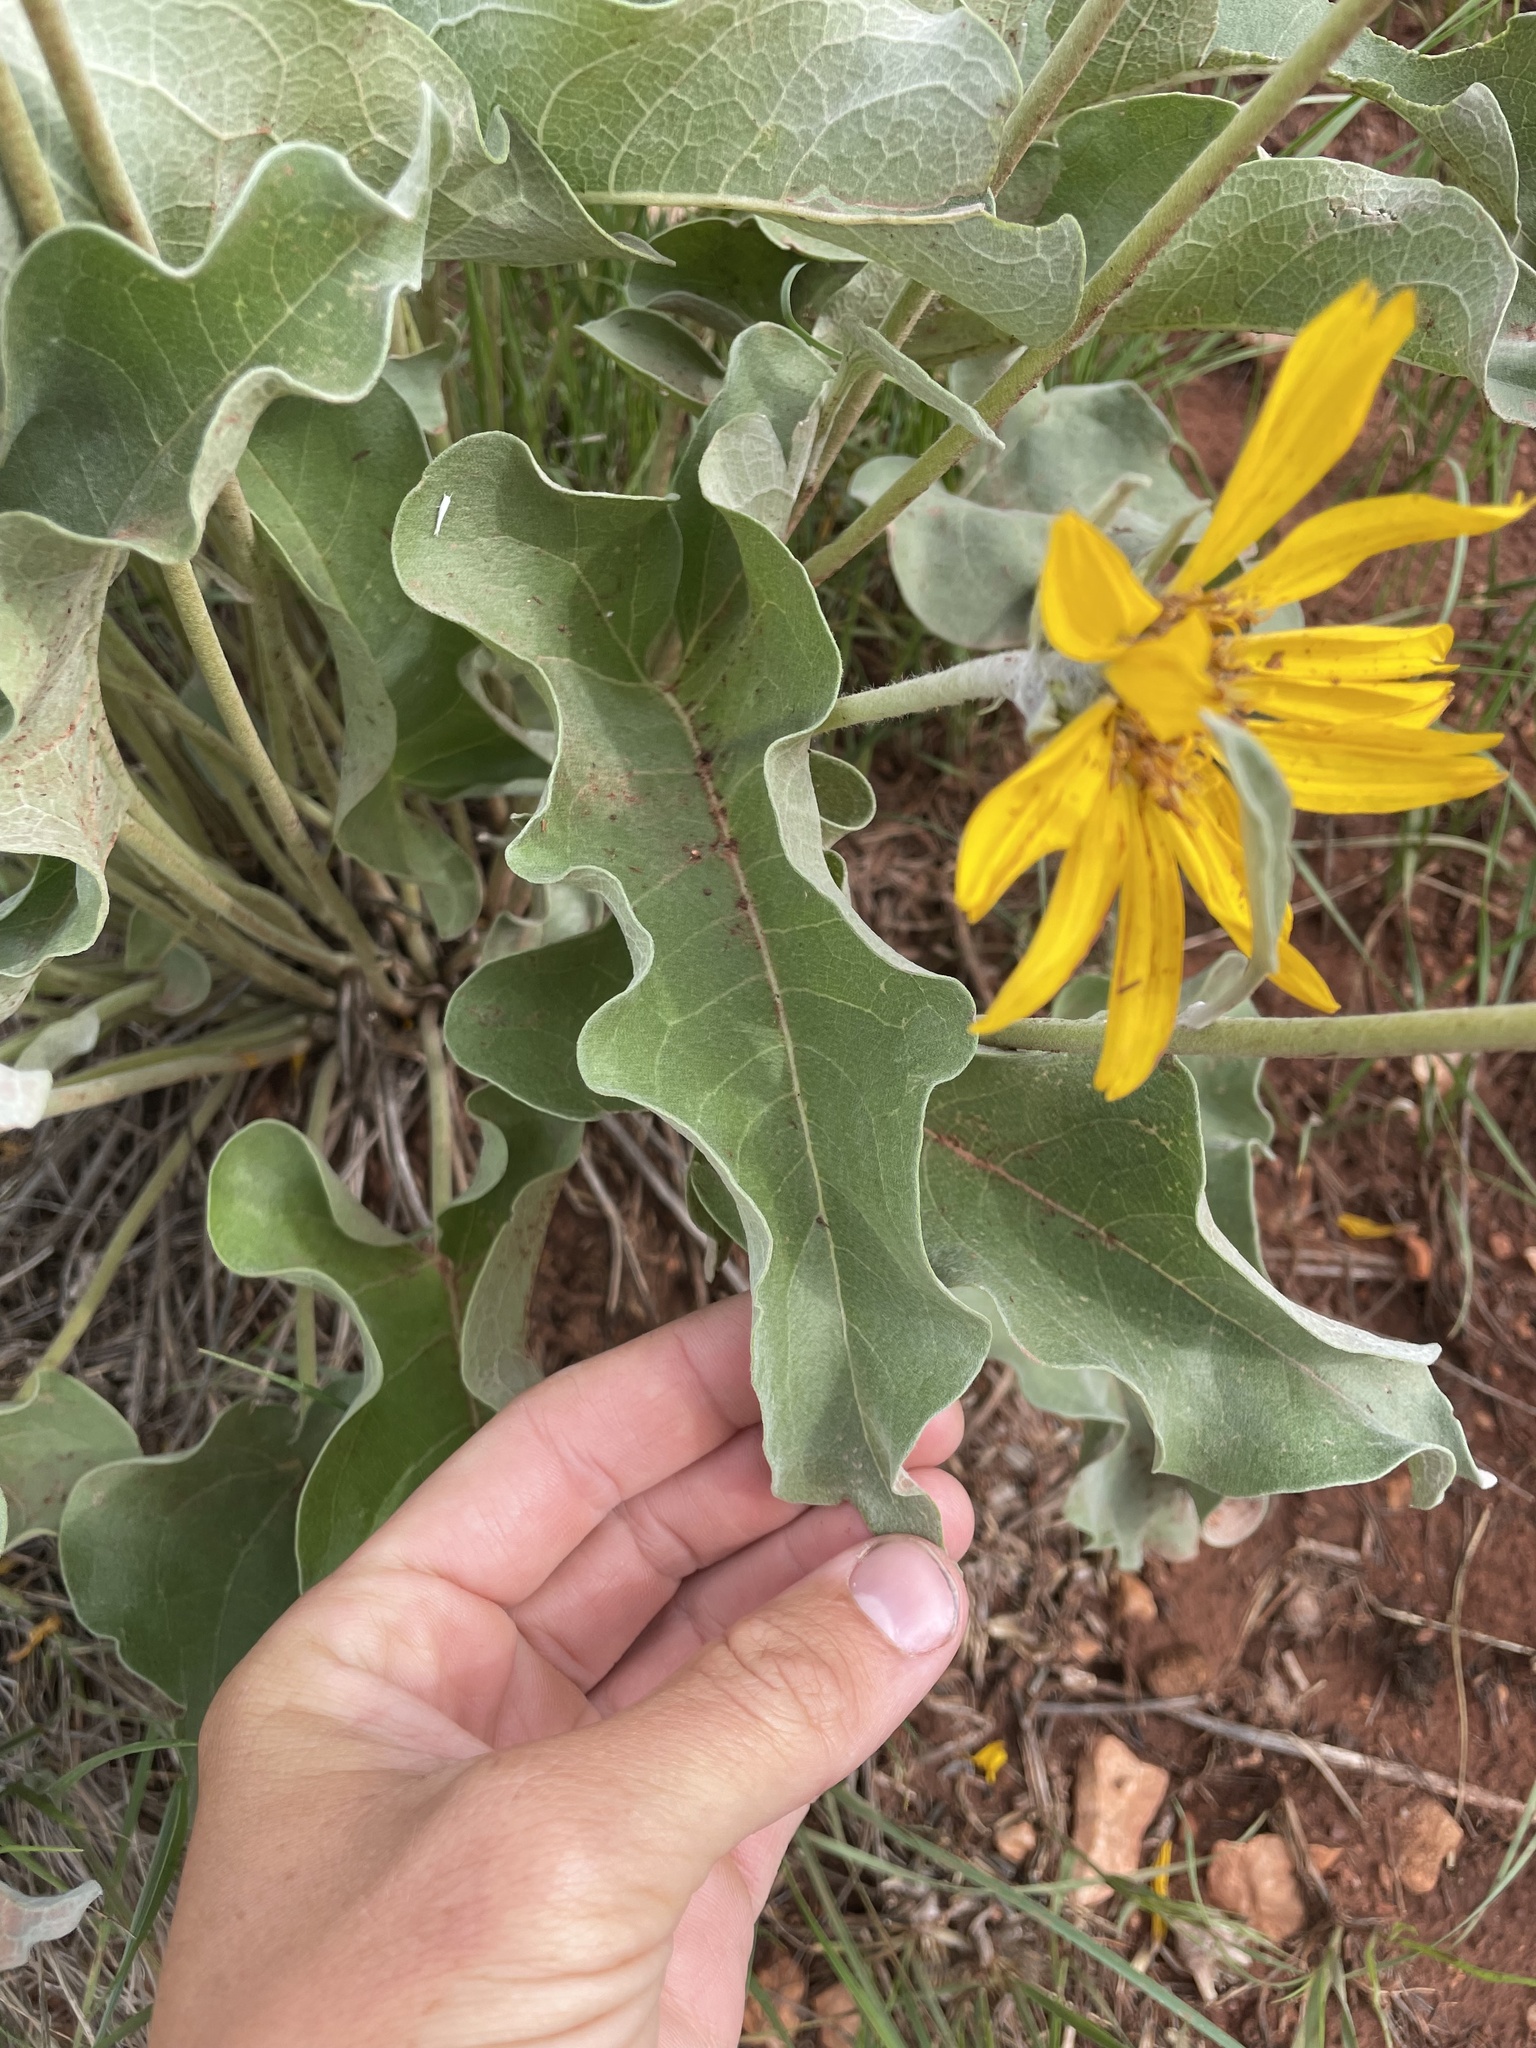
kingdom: Plantae
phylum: Tracheophyta
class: Magnoliopsida
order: Asterales
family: Asteraceae
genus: Wyethia
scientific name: Wyethia sagittata
